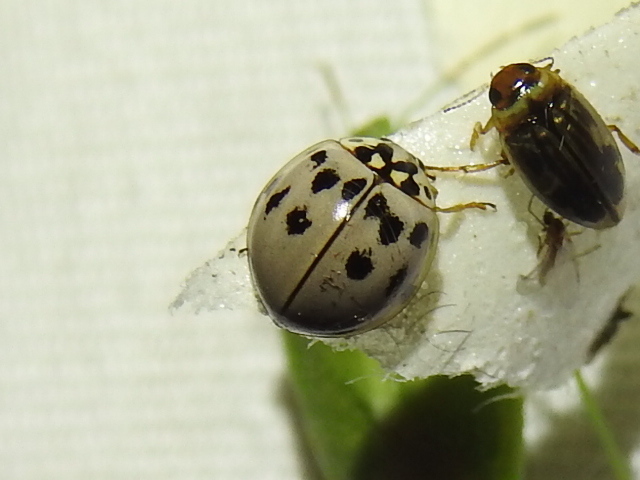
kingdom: Animalia
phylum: Arthropoda
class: Insecta
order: Coleoptera
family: Coccinellidae
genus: Olla
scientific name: Olla v-nigrum
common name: Ashy gray lady beetle
